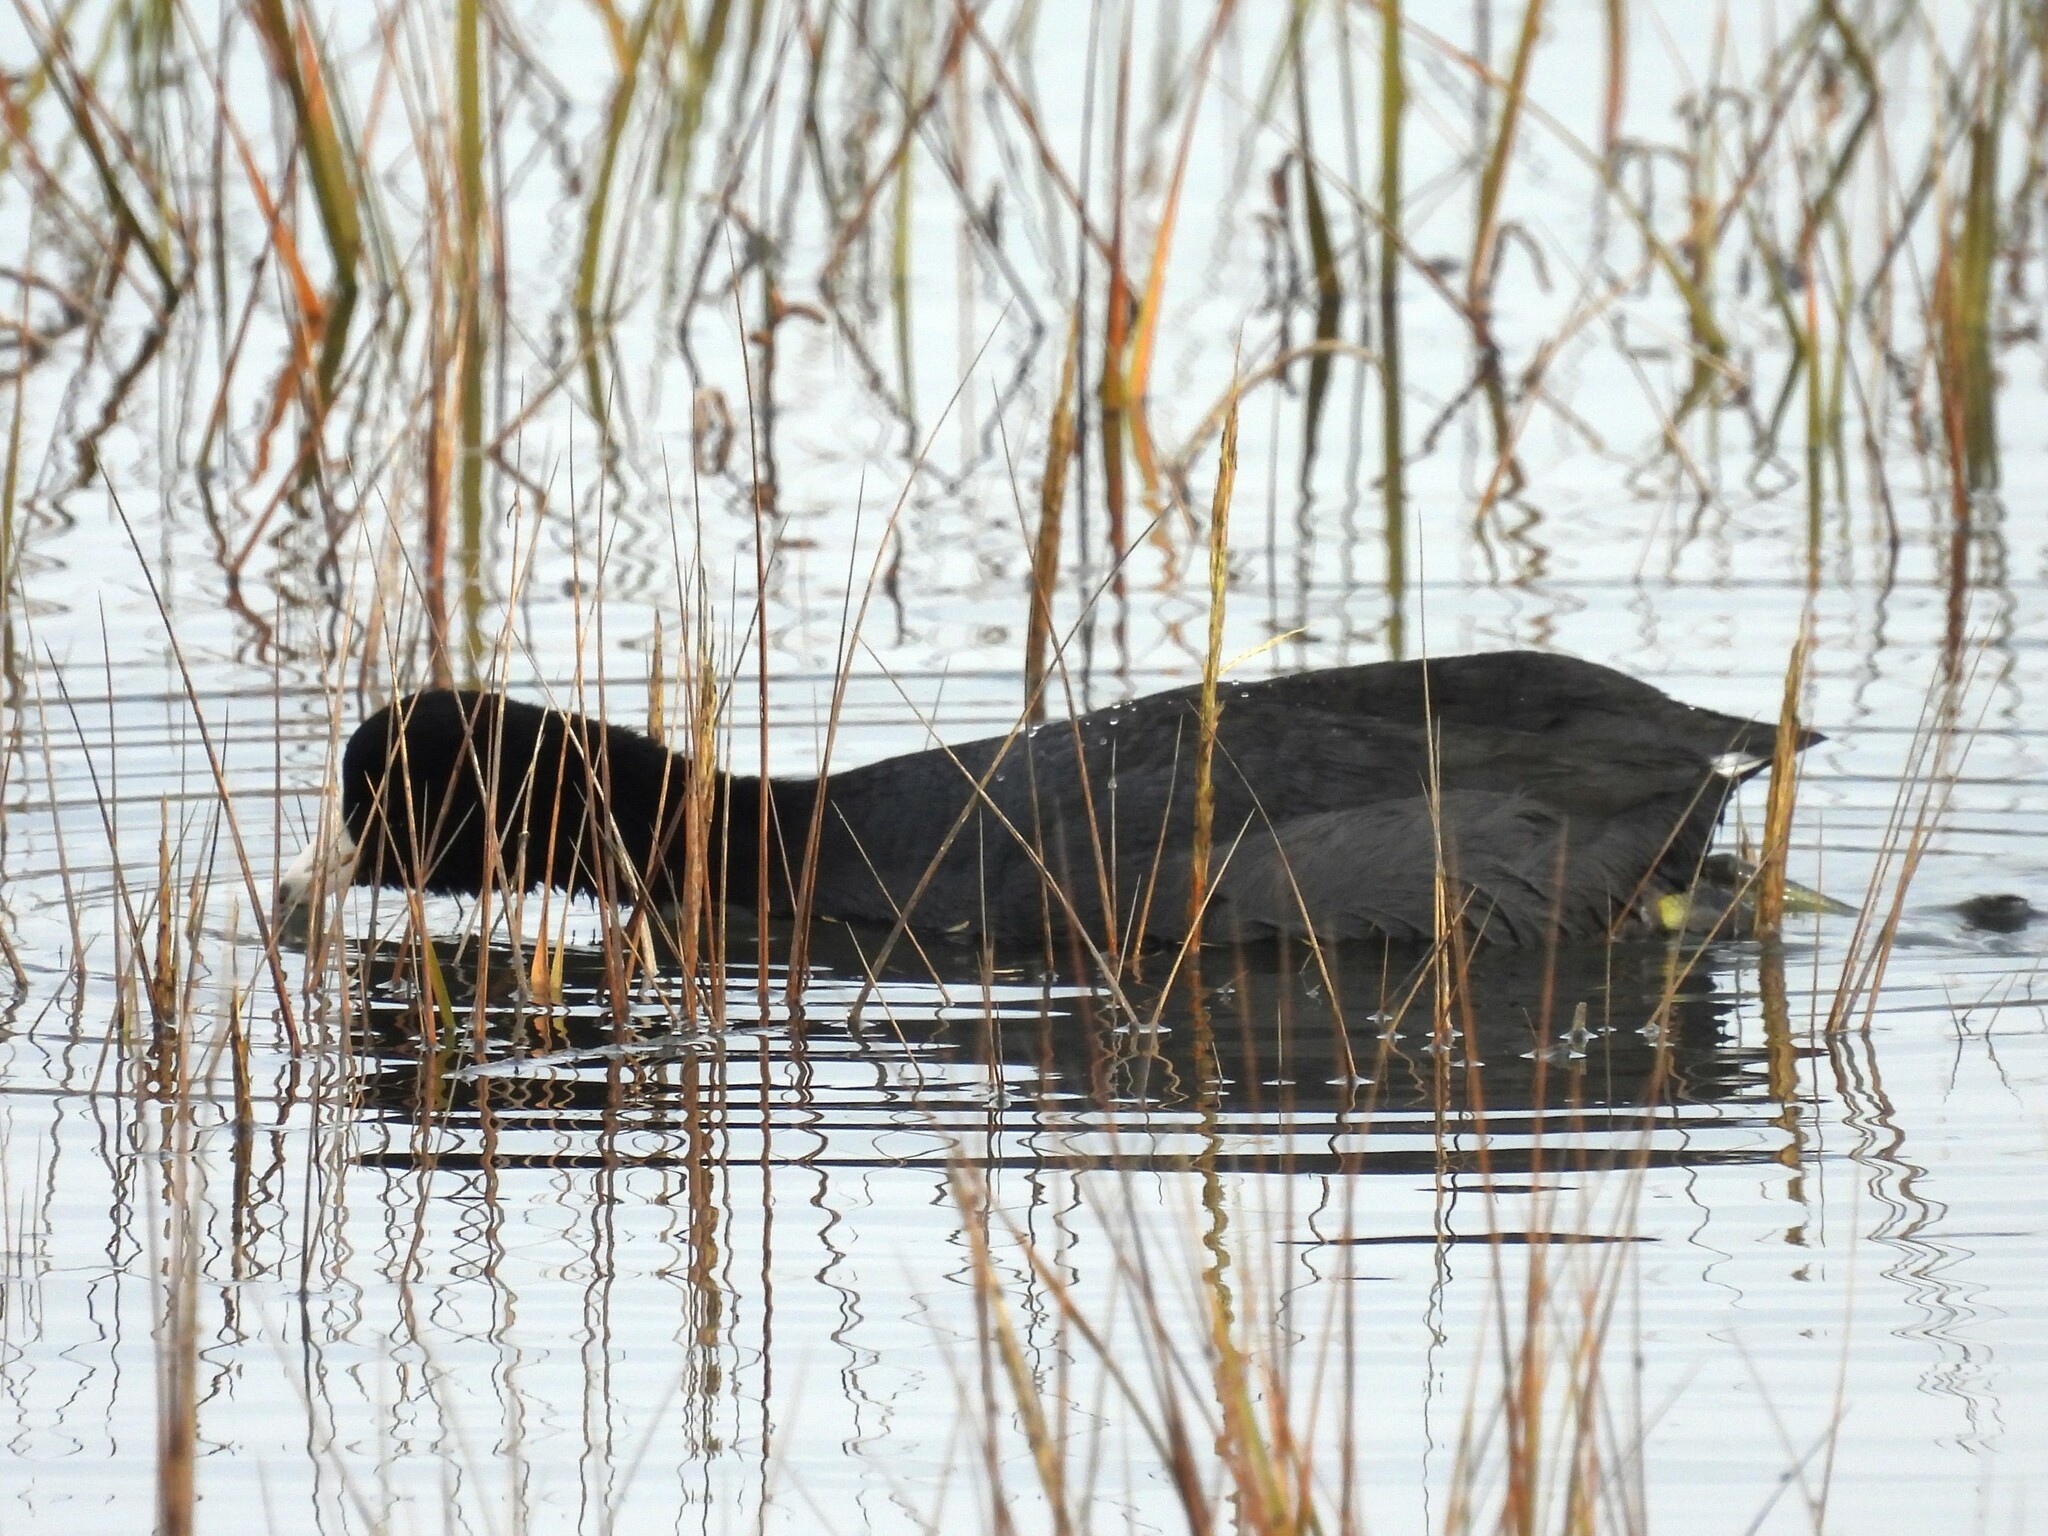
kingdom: Animalia
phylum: Chordata
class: Aves
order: Gruiformes
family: Rallidae
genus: Fulica
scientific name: Fulica americana
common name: American coot
